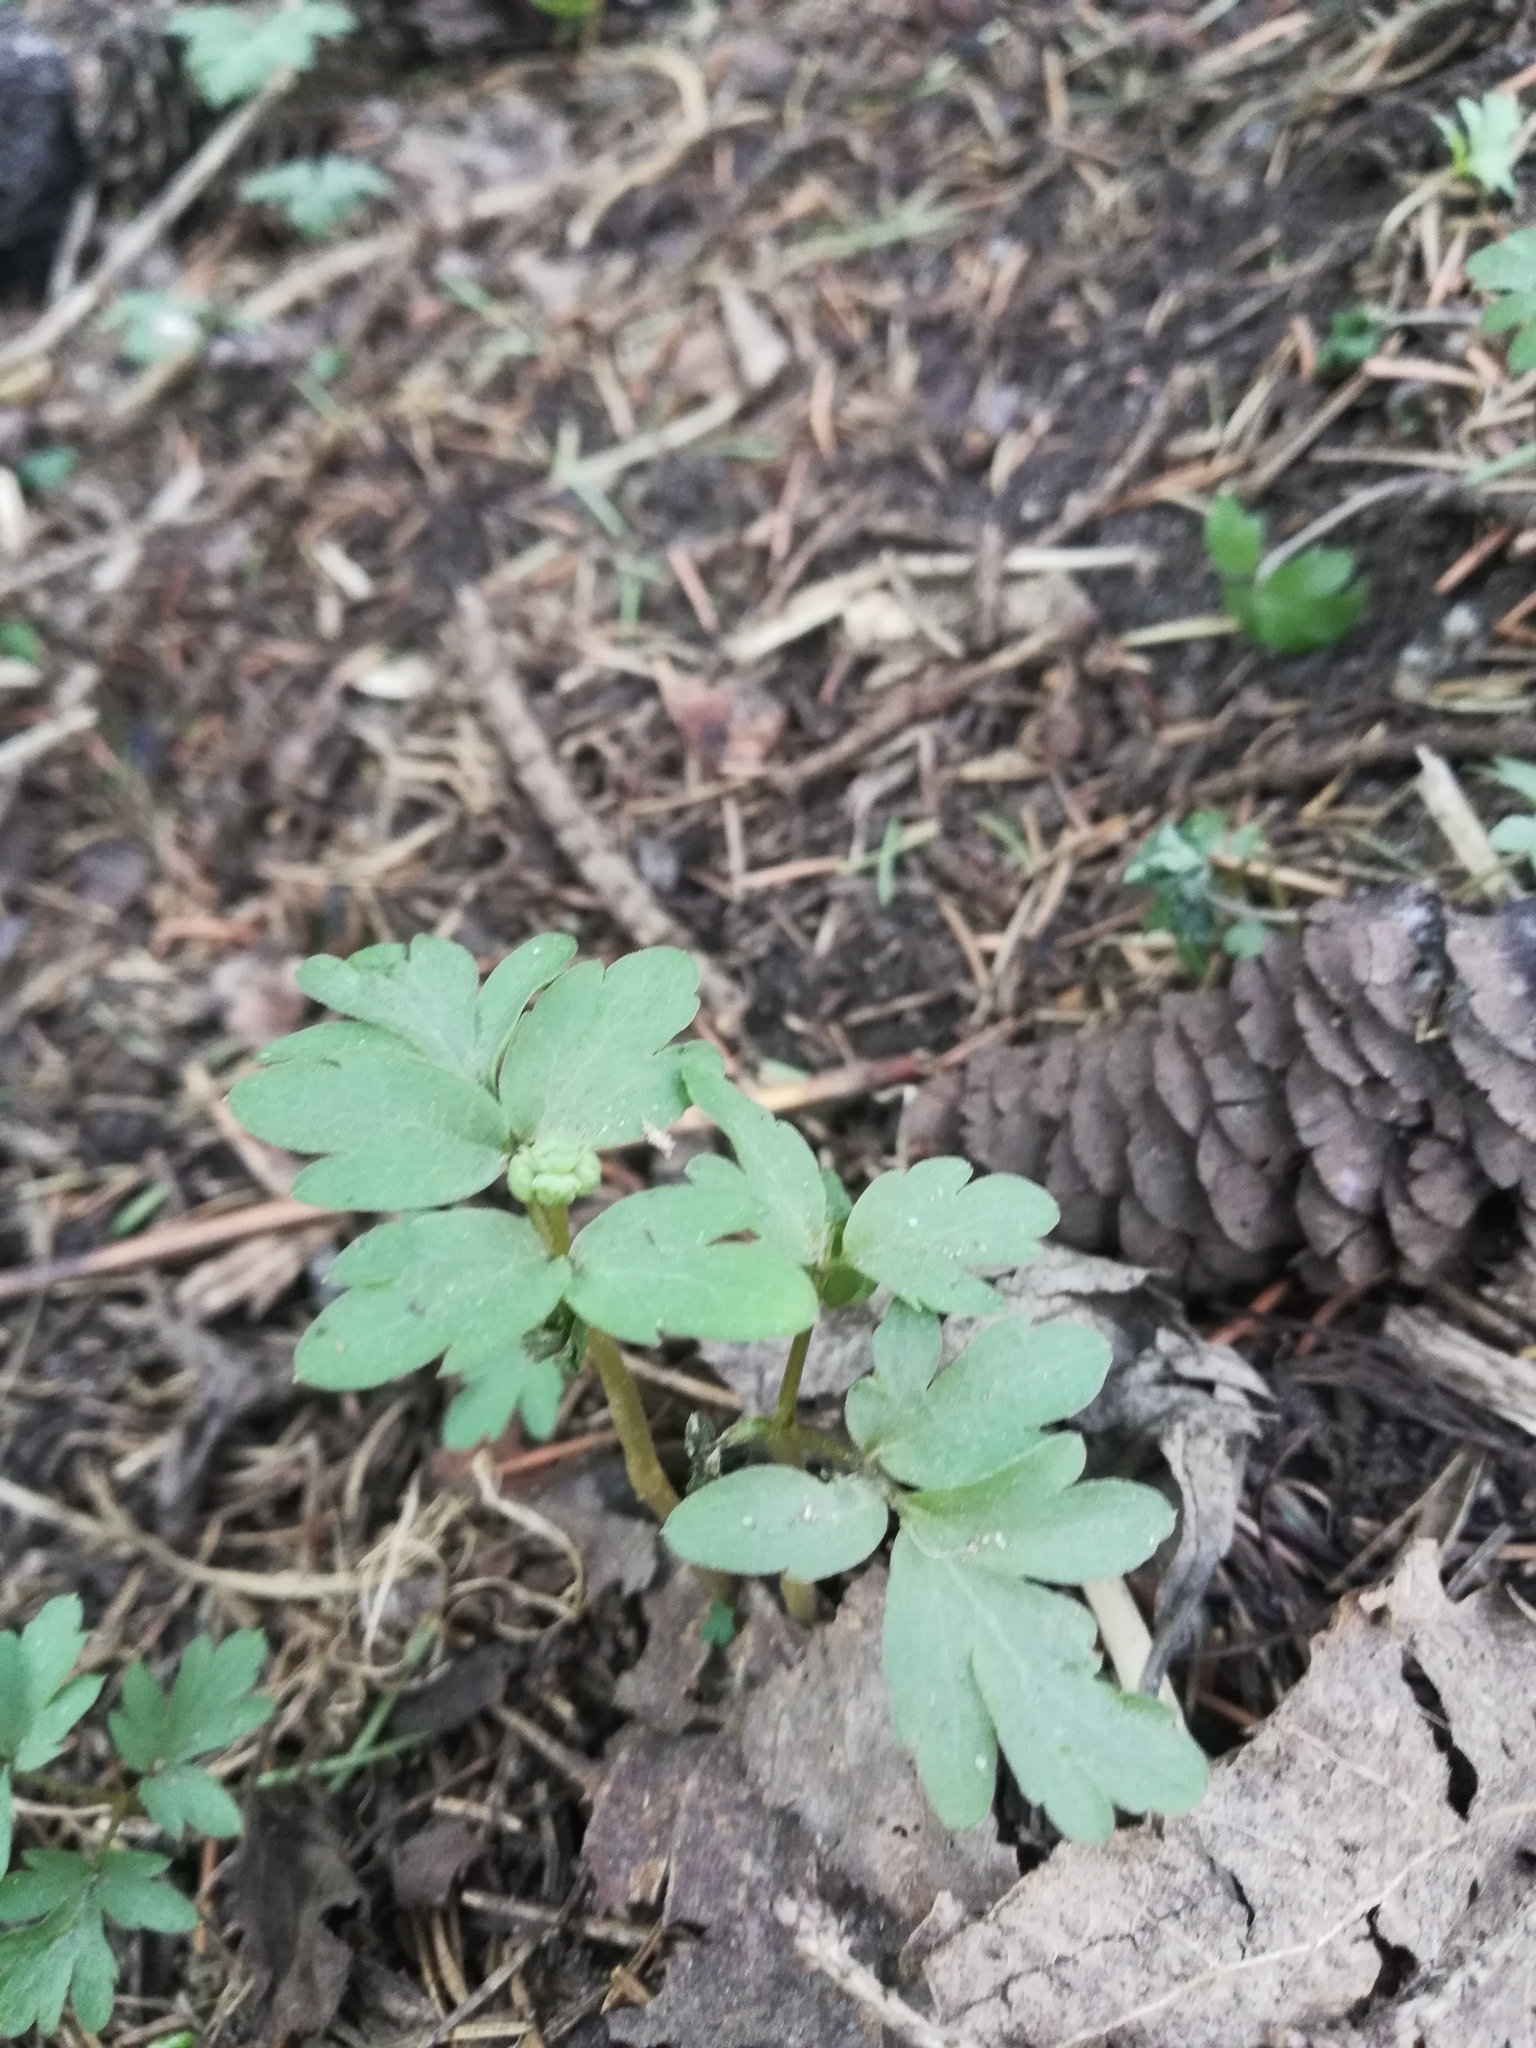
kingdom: Plantae
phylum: Tracheophyta
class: Magnoliopsida
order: Dipsacales
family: Viburnaceae
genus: Adoxa
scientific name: Adoxa moschatellina
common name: Moschatel
